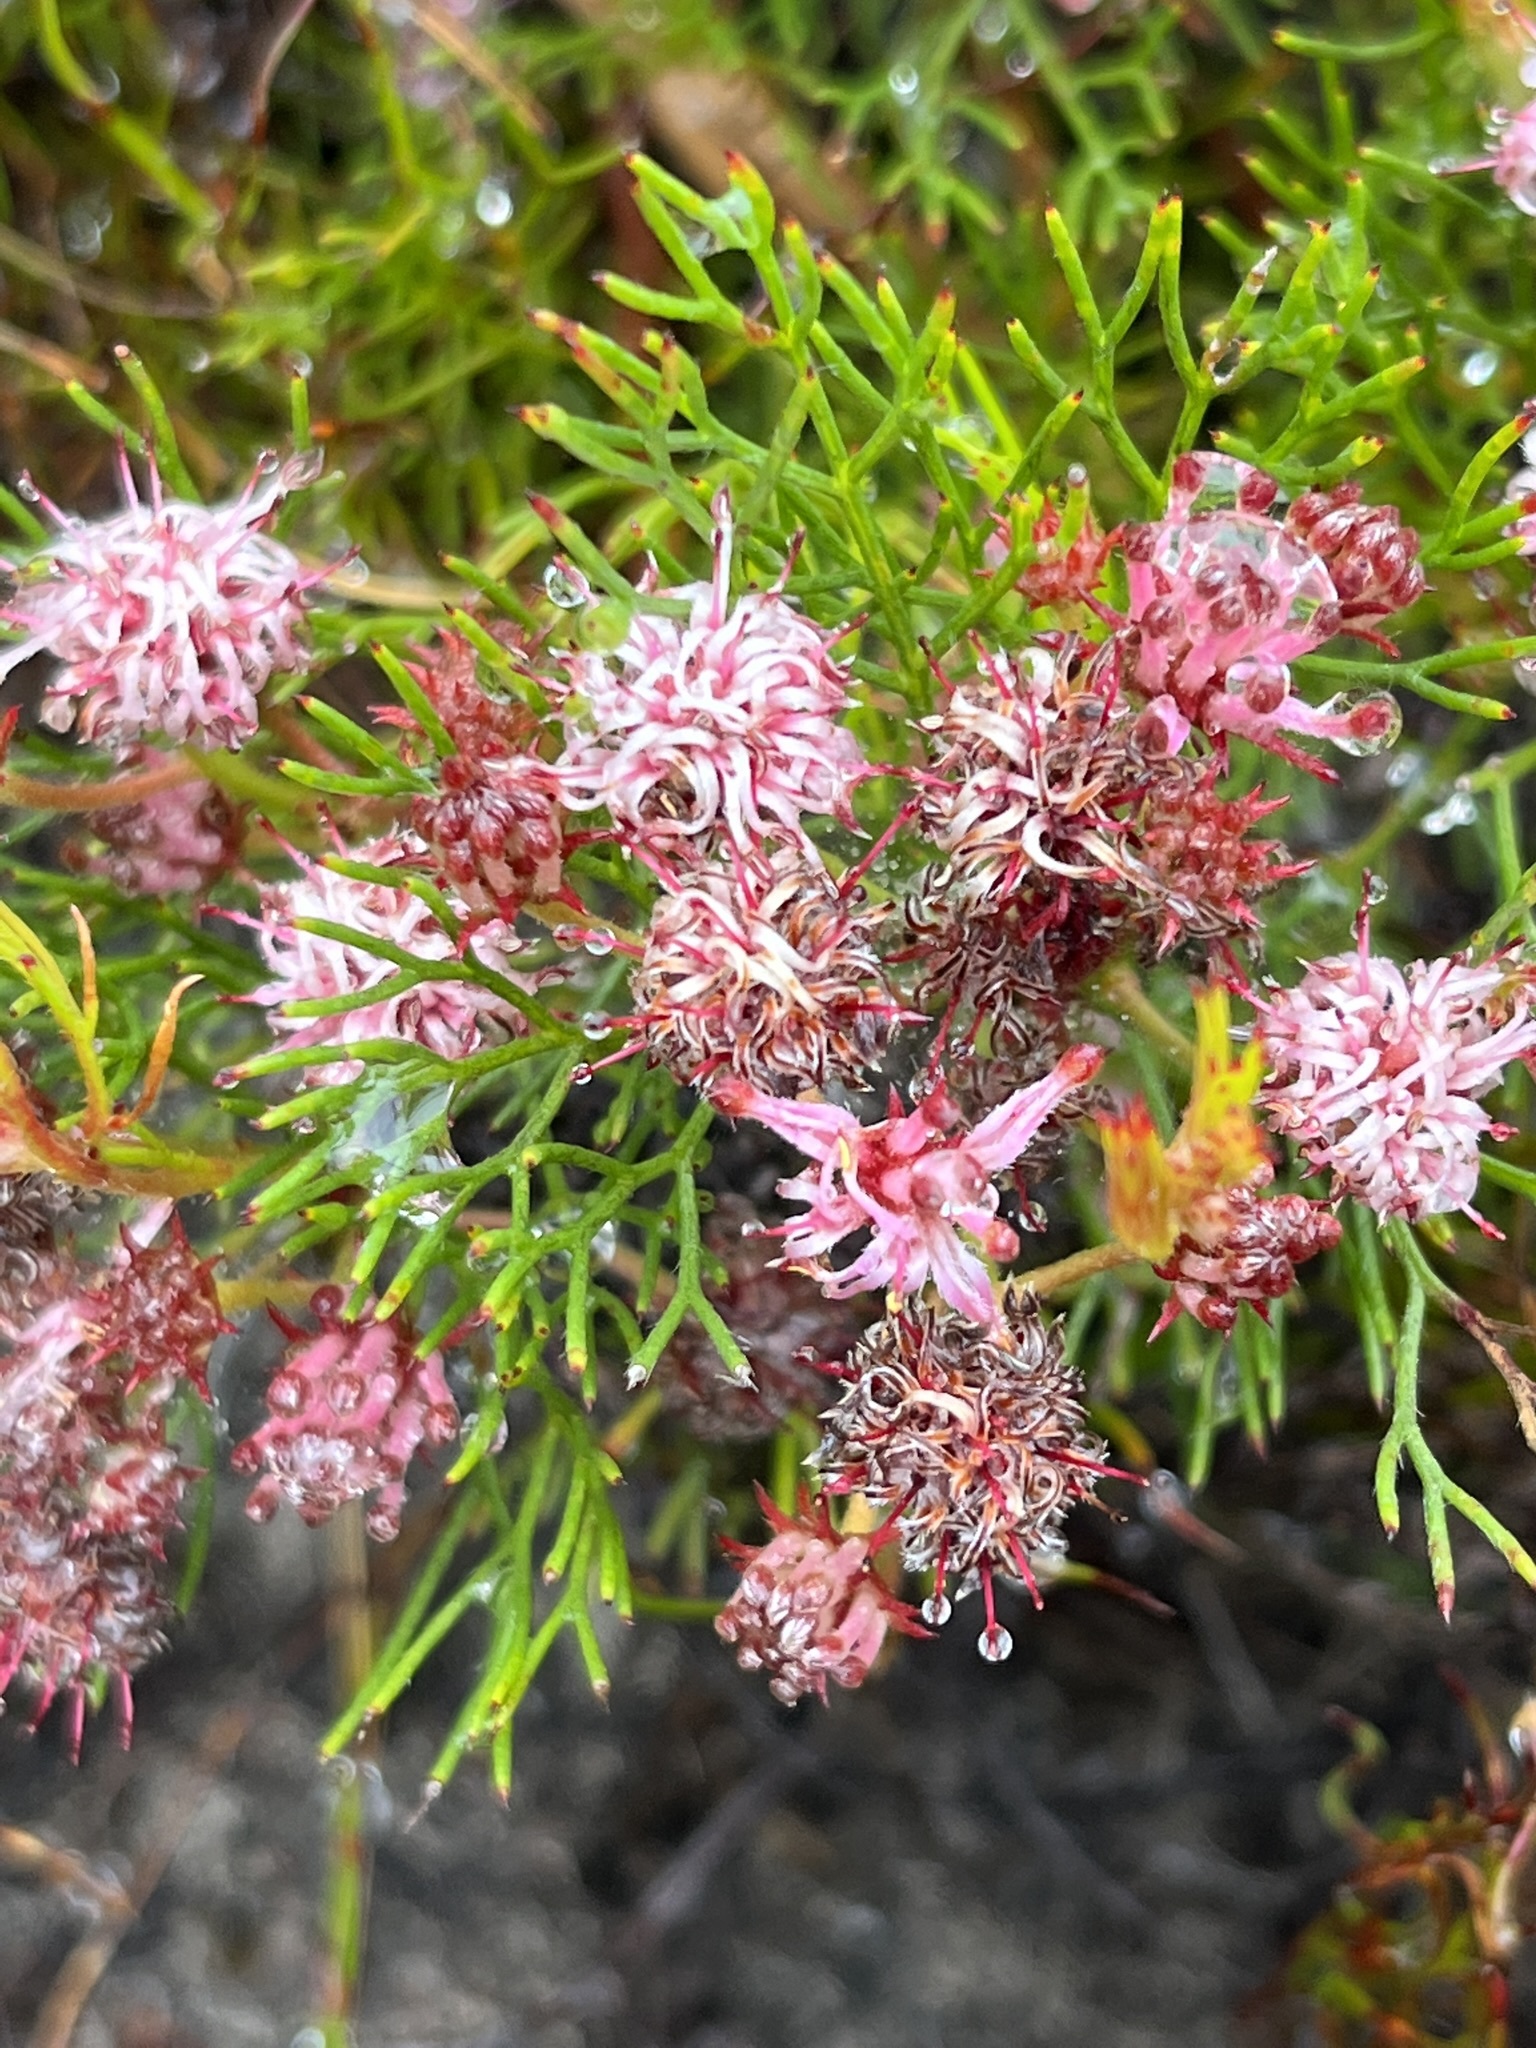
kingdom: Plantae
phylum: Tracheophyta
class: Magnoliopsida
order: Proteales
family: Proteaceae
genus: Serruria
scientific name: Serruria fasciflora
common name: Common pin spiderhead
